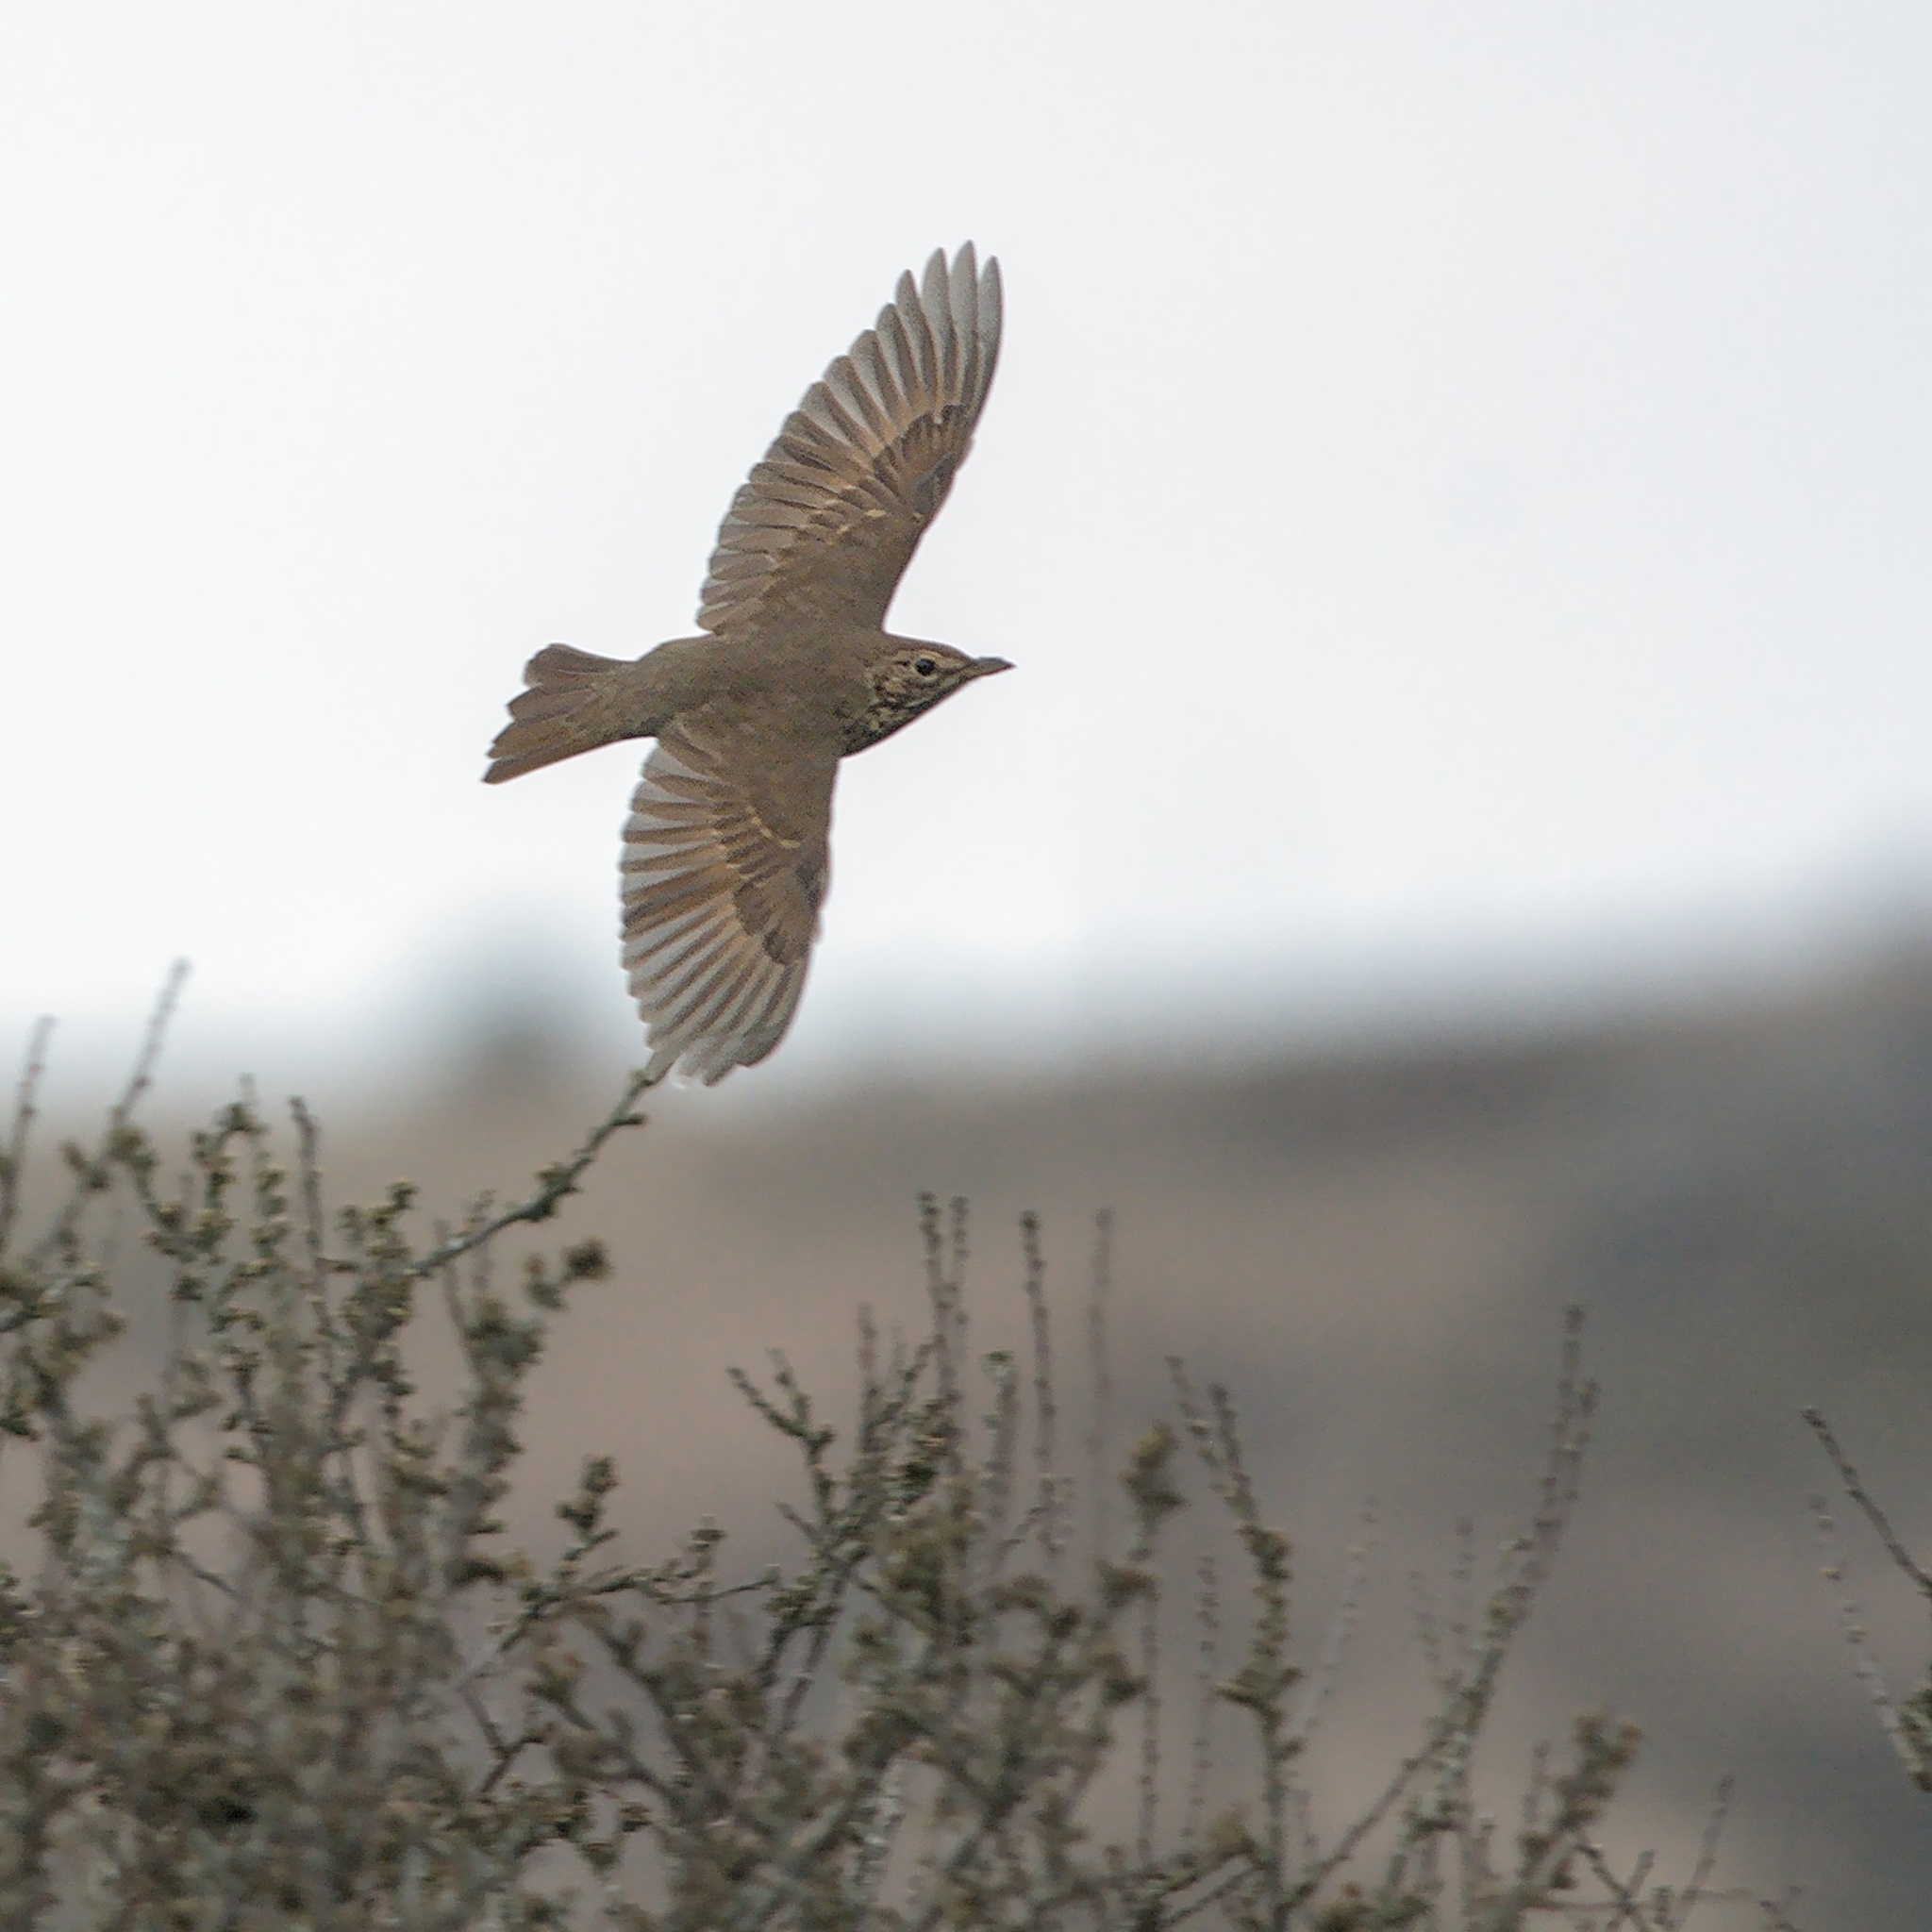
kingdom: Animalia
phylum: Chordata
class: Aves
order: Passeriformes
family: Turdidae
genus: Turdus
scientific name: Turdus philomelos
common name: Song thrush
